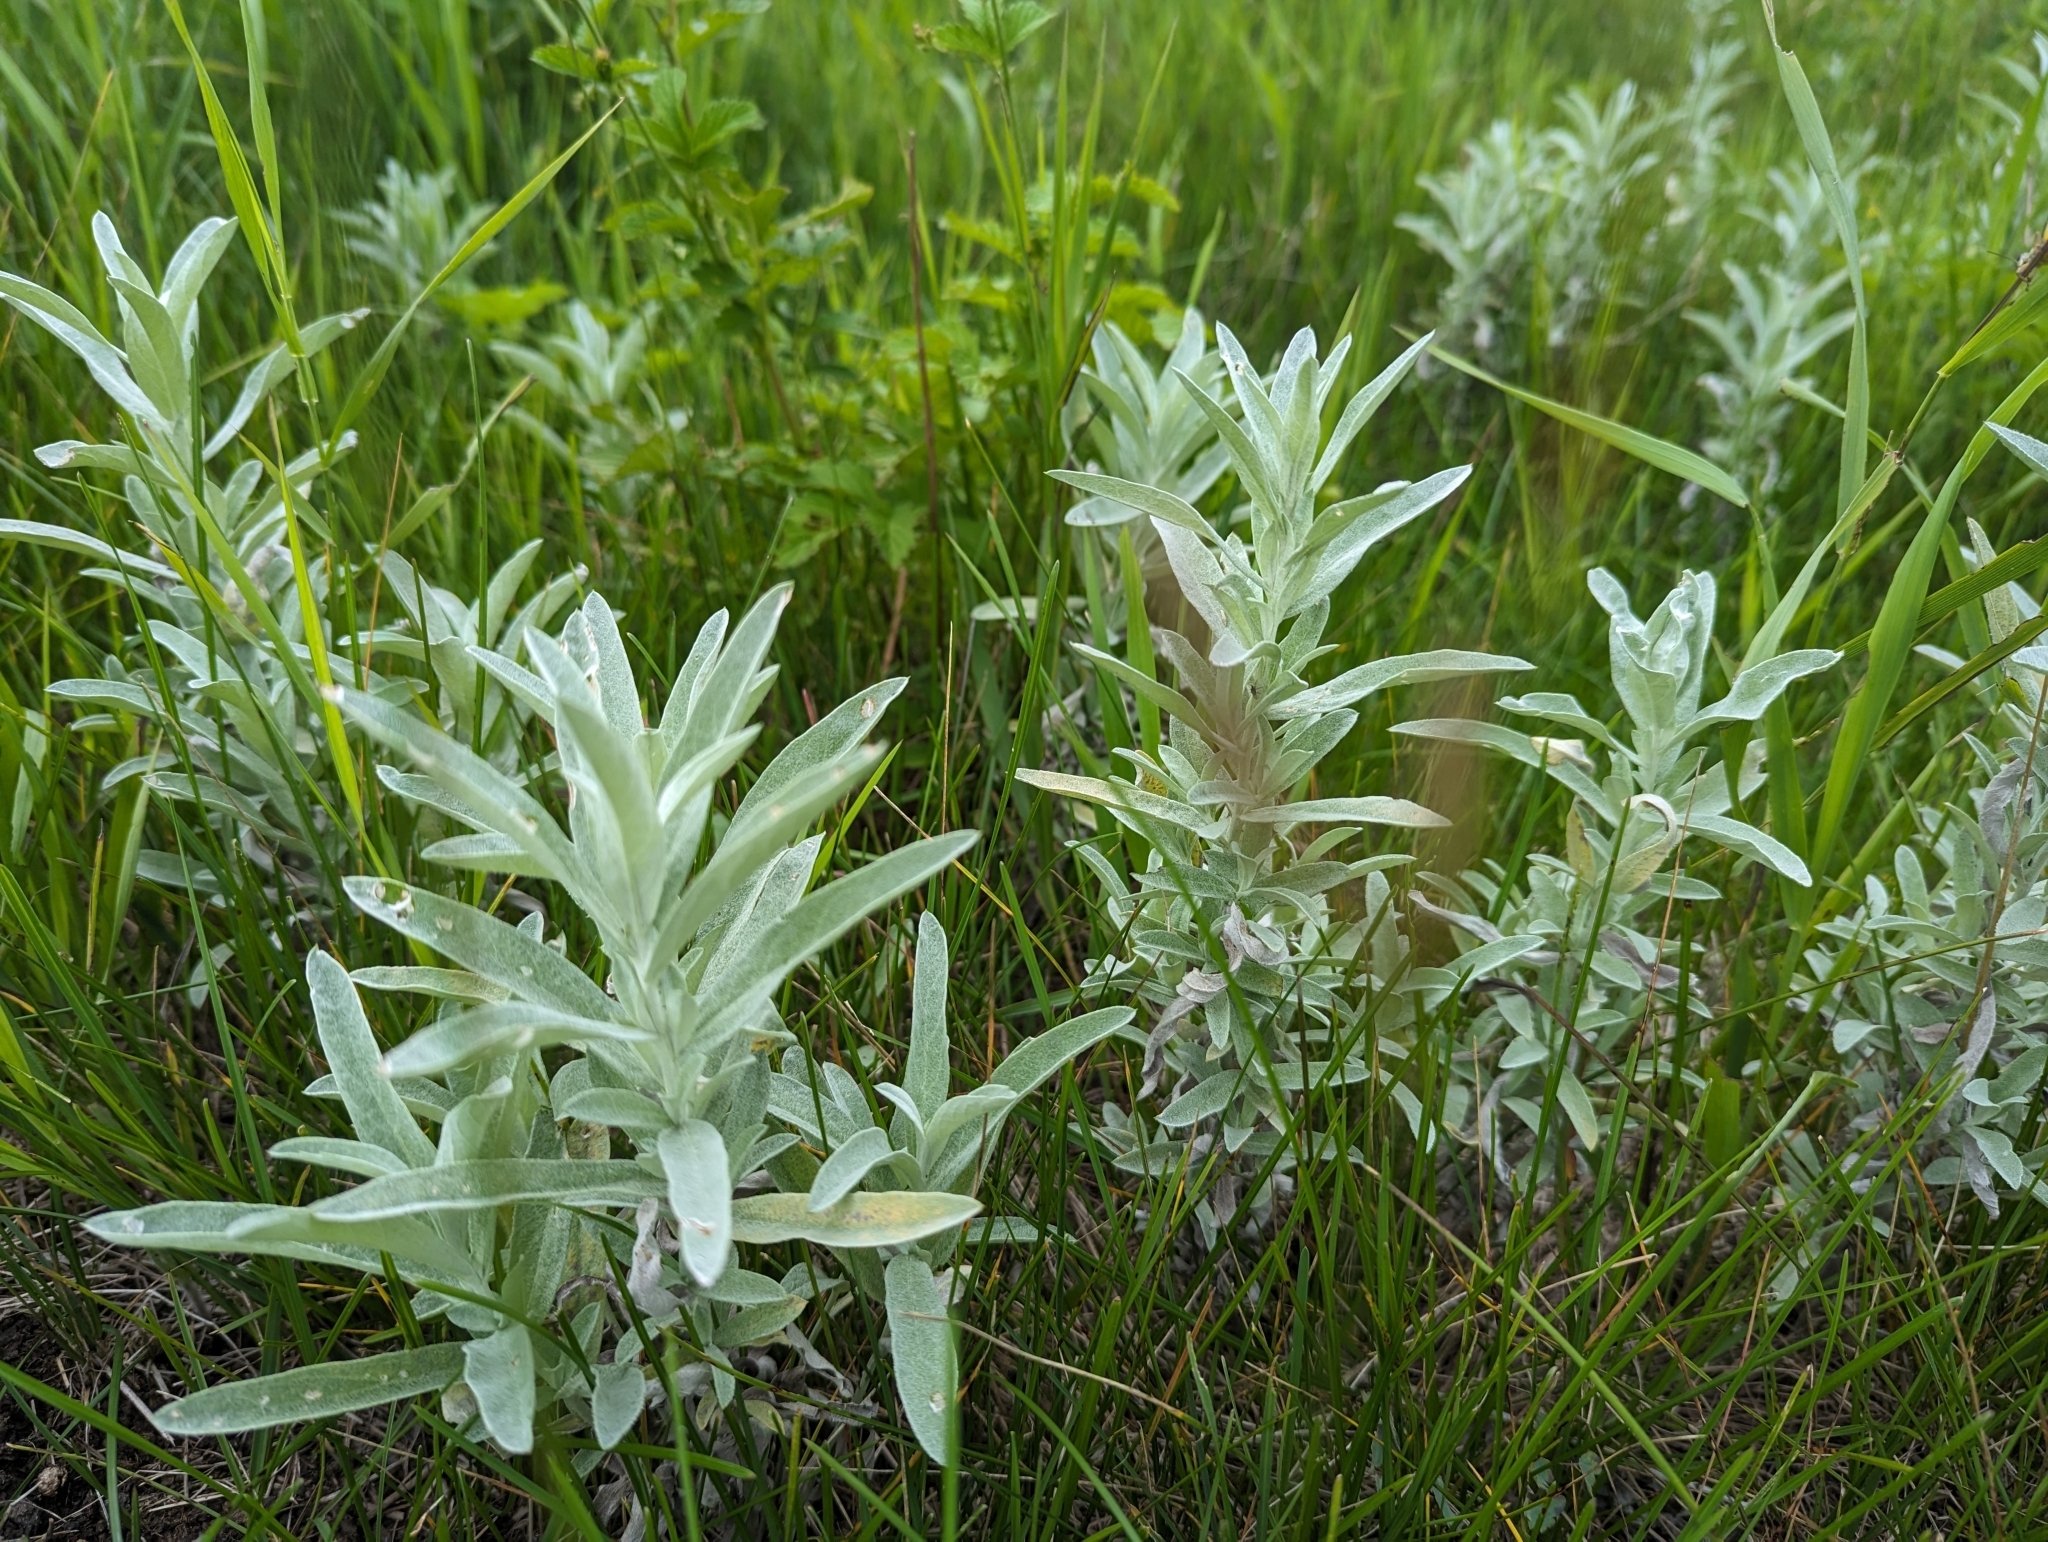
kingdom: Plantae
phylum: Tracheophyta
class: Magnoliopsida
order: Asterales
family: Asteraceae
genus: Artemisia
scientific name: Artemisia ludoviciana
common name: Western mugwort
